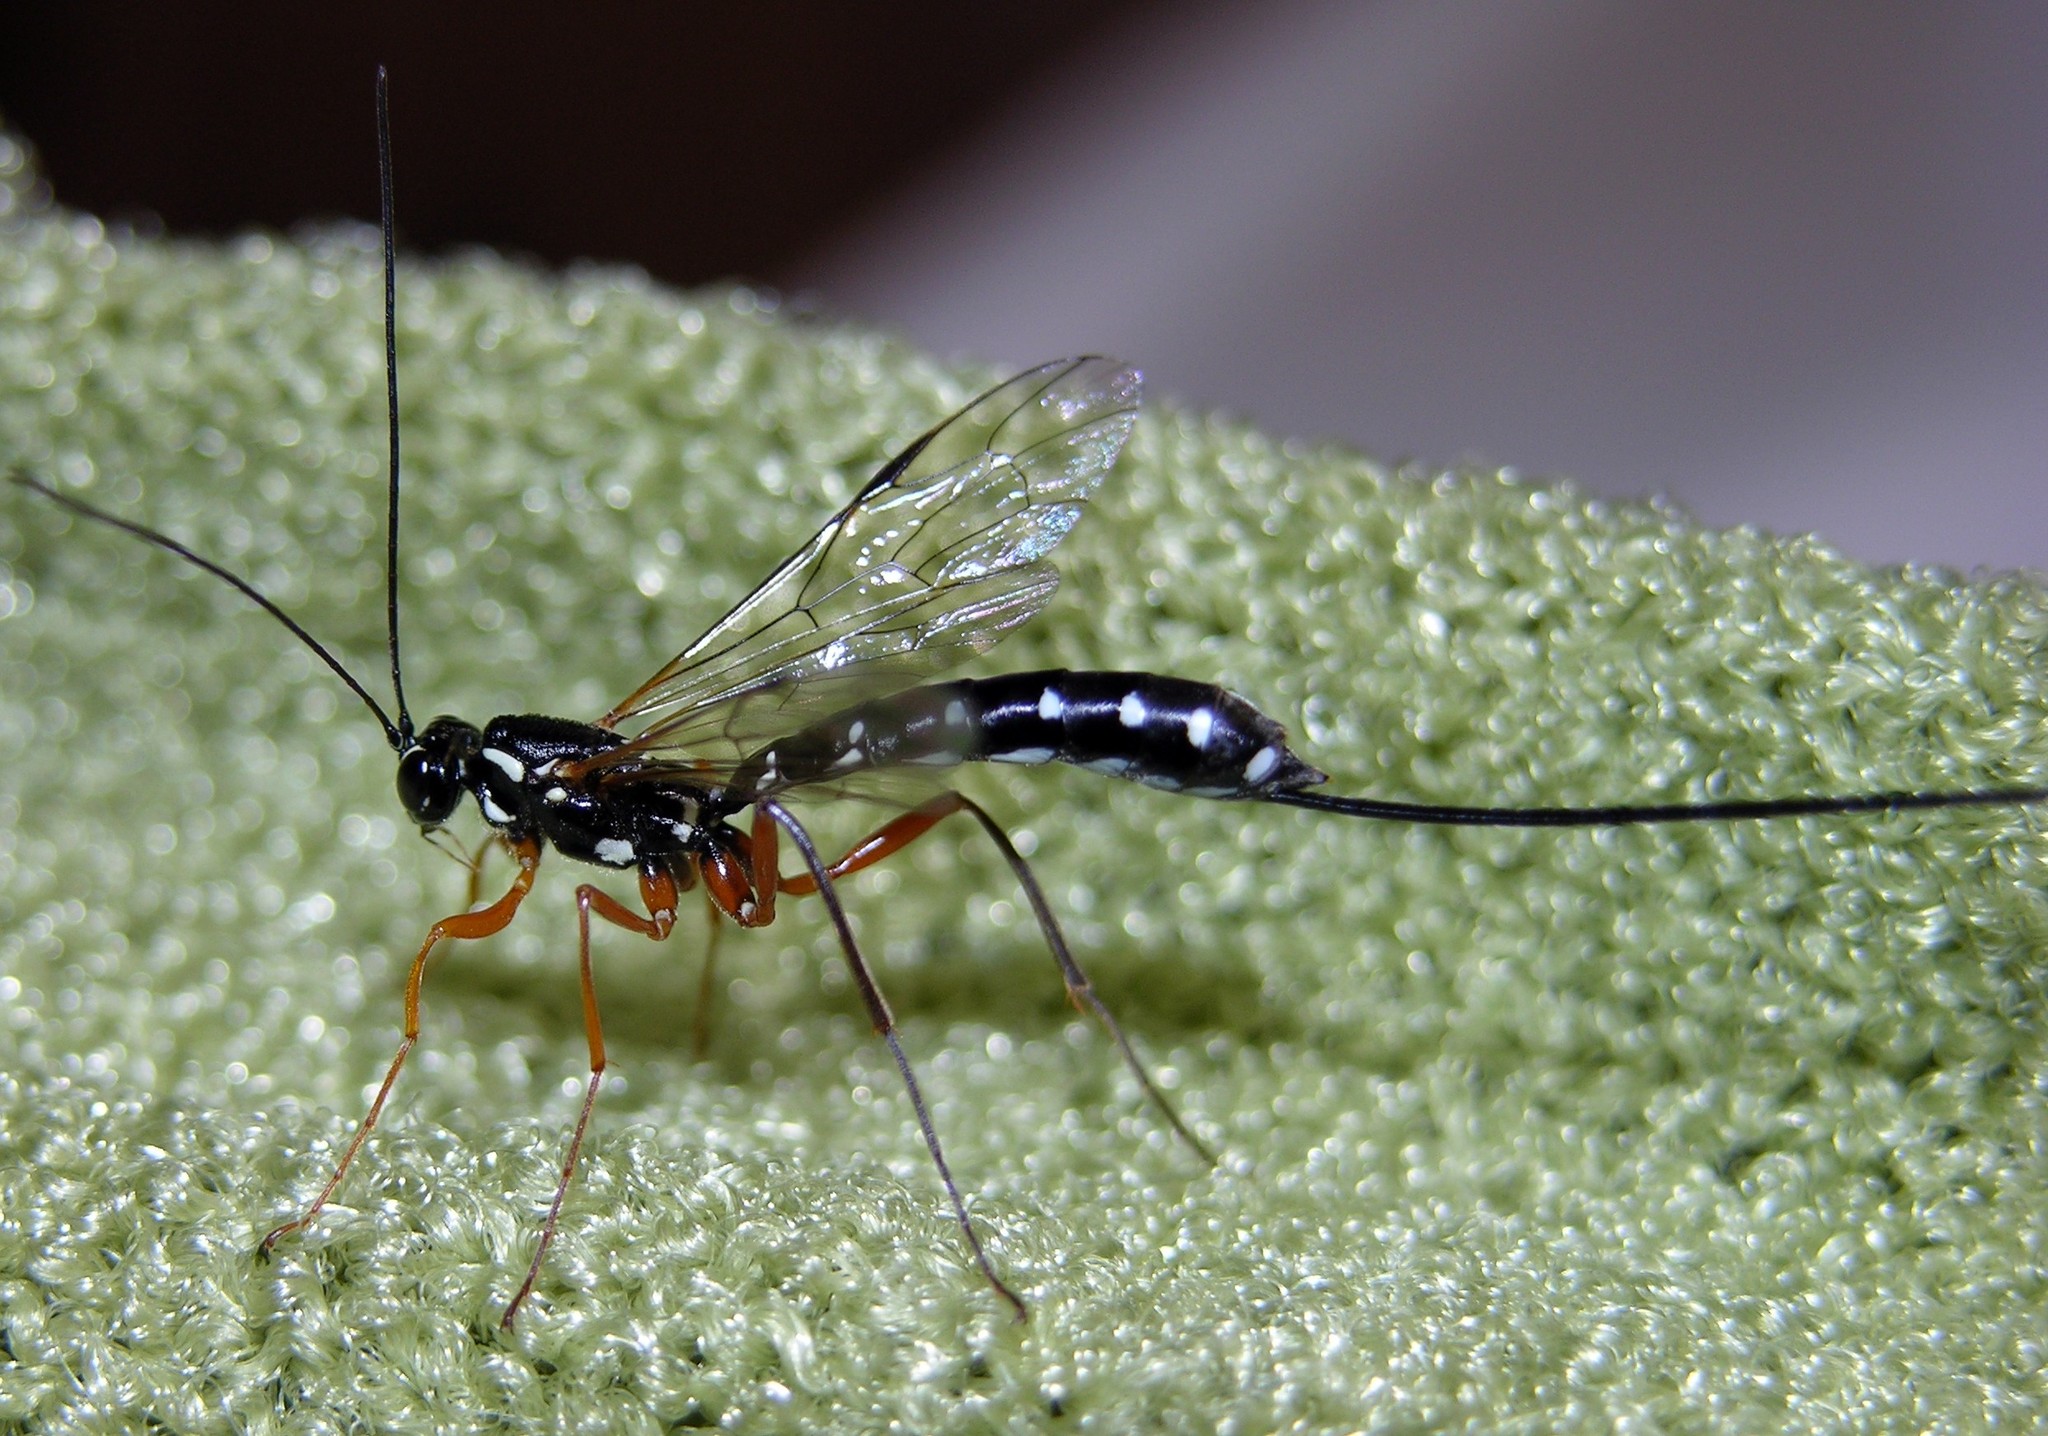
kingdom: Animalia
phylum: Arthropoda
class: Insecta
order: Hymenoptera
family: Ichneumonidae
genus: Rhyssa
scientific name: Rhyssa persuasoria
